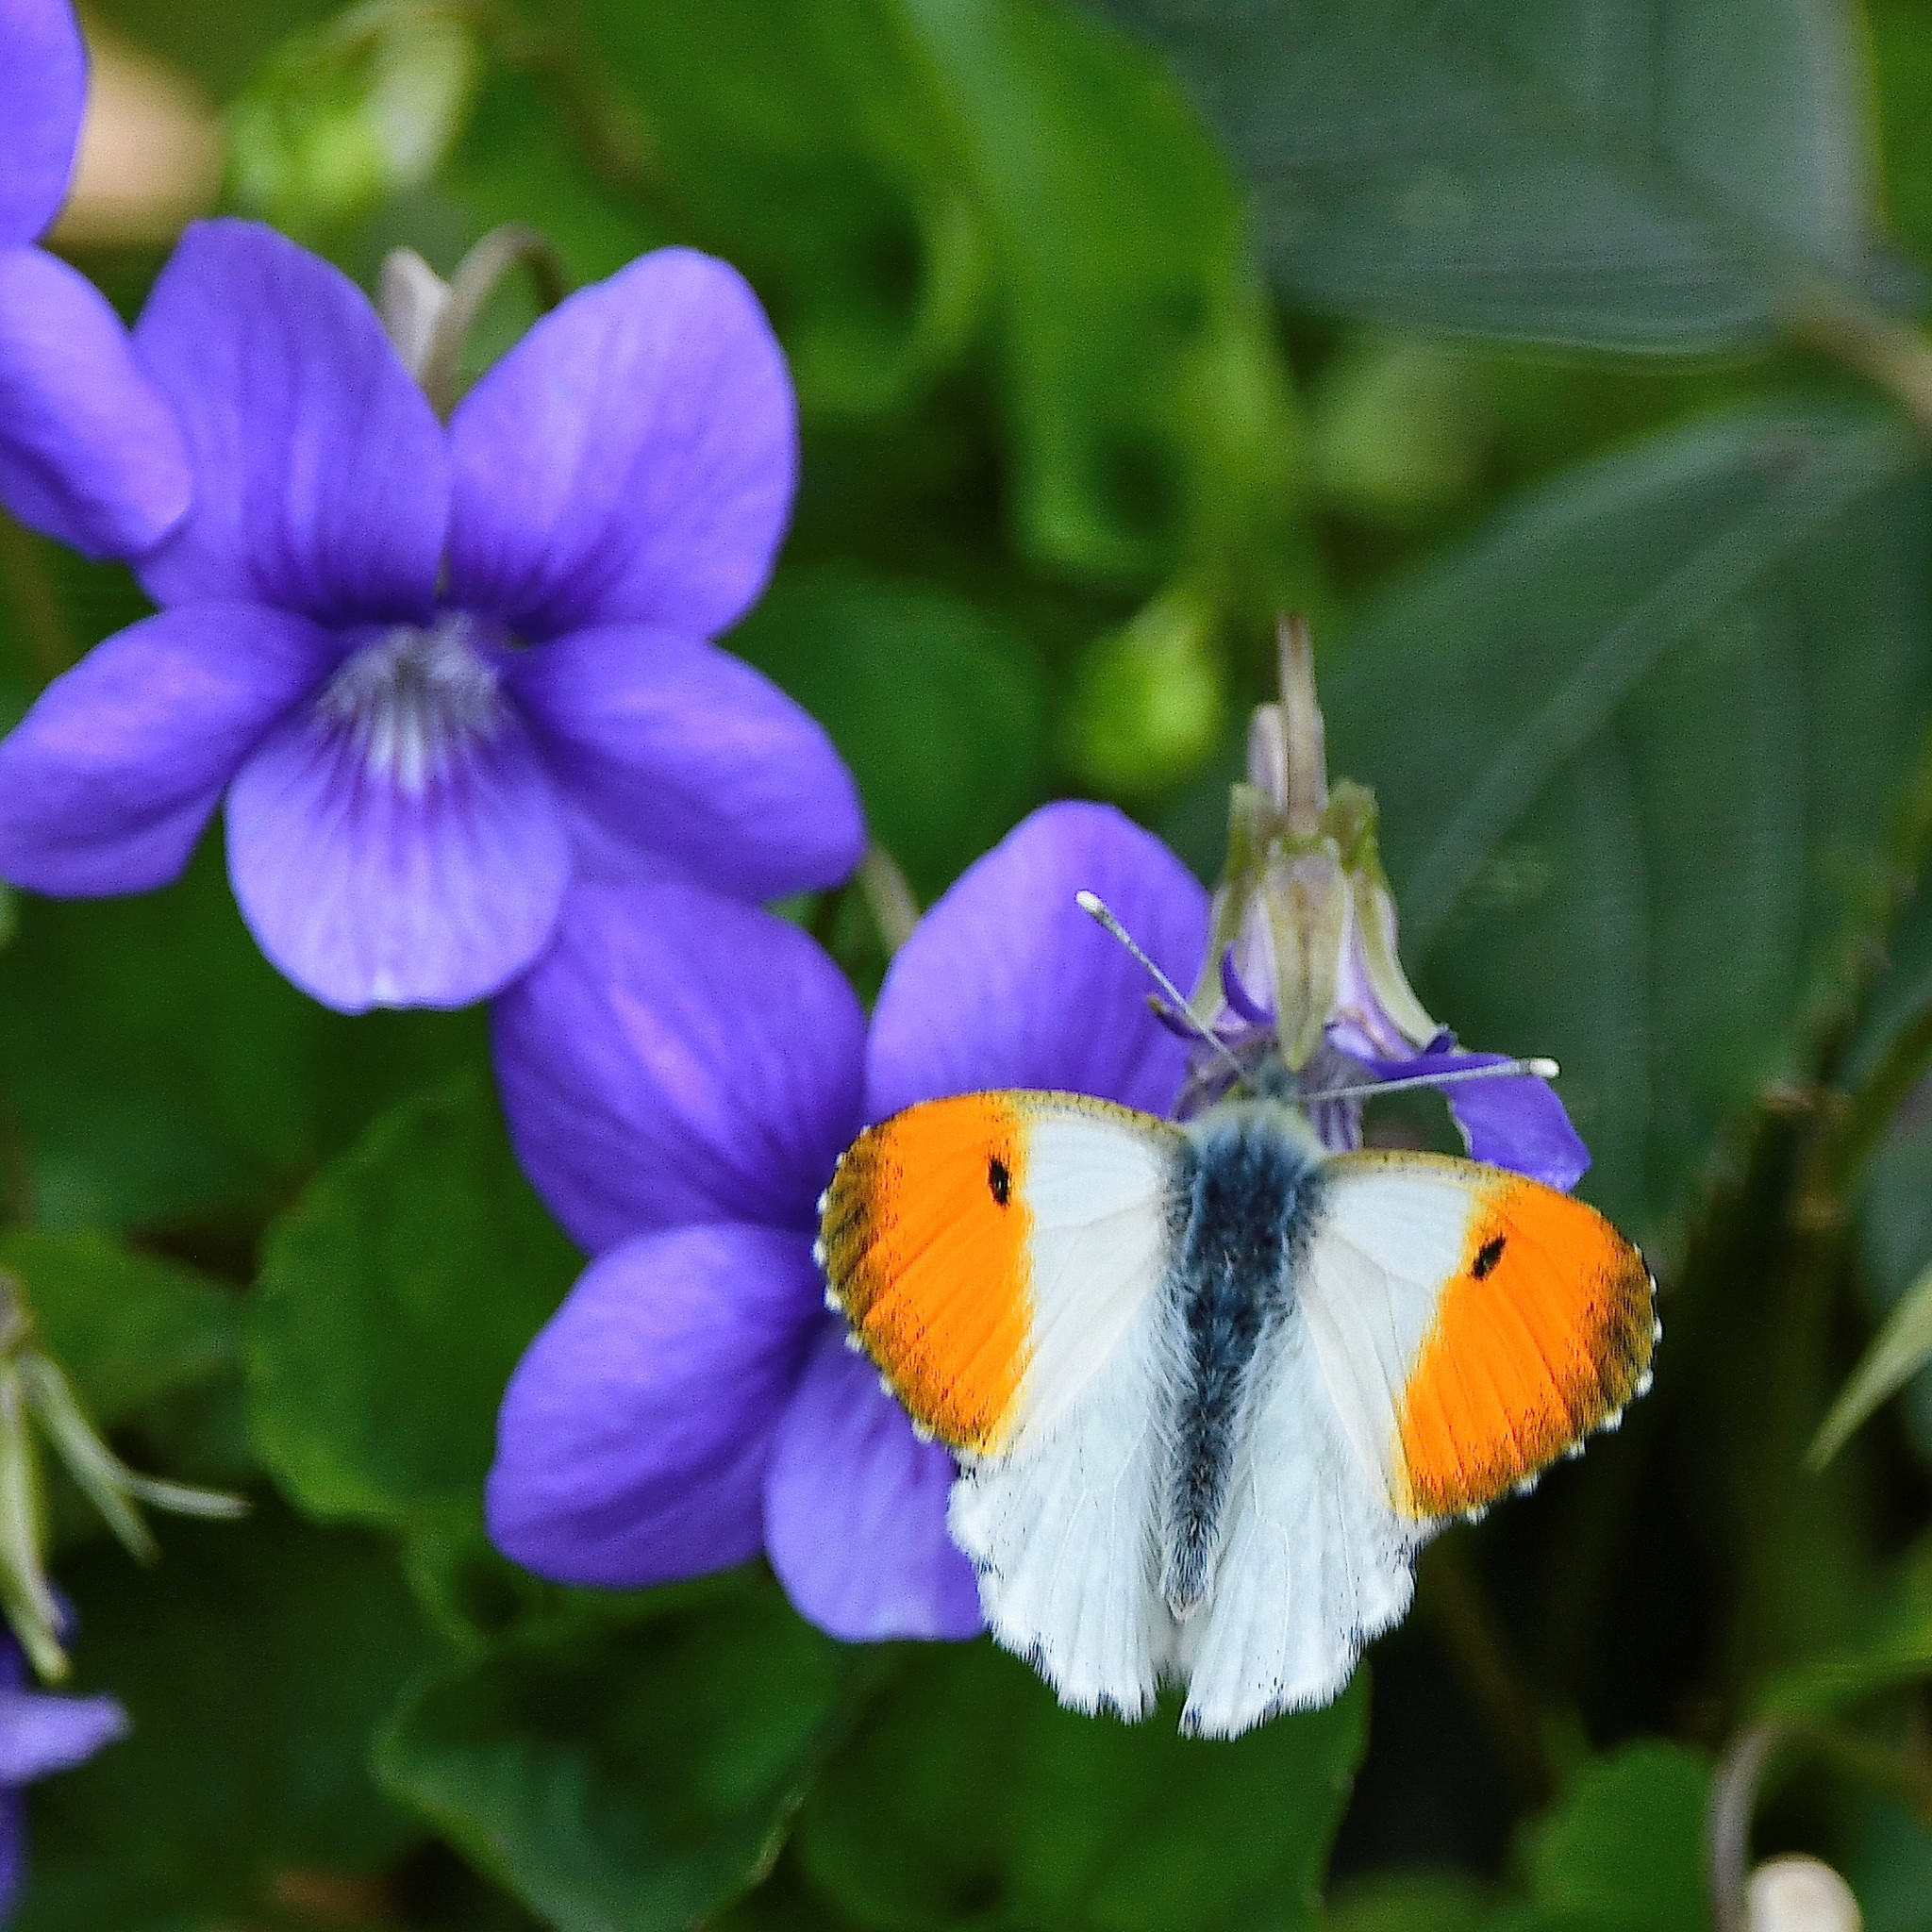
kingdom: Animalia
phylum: Arthropoda
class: Insecta
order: Lepidoptera
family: Pieridae
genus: Anthocharis
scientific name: Anthocharis cardamines
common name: Orange-tip
